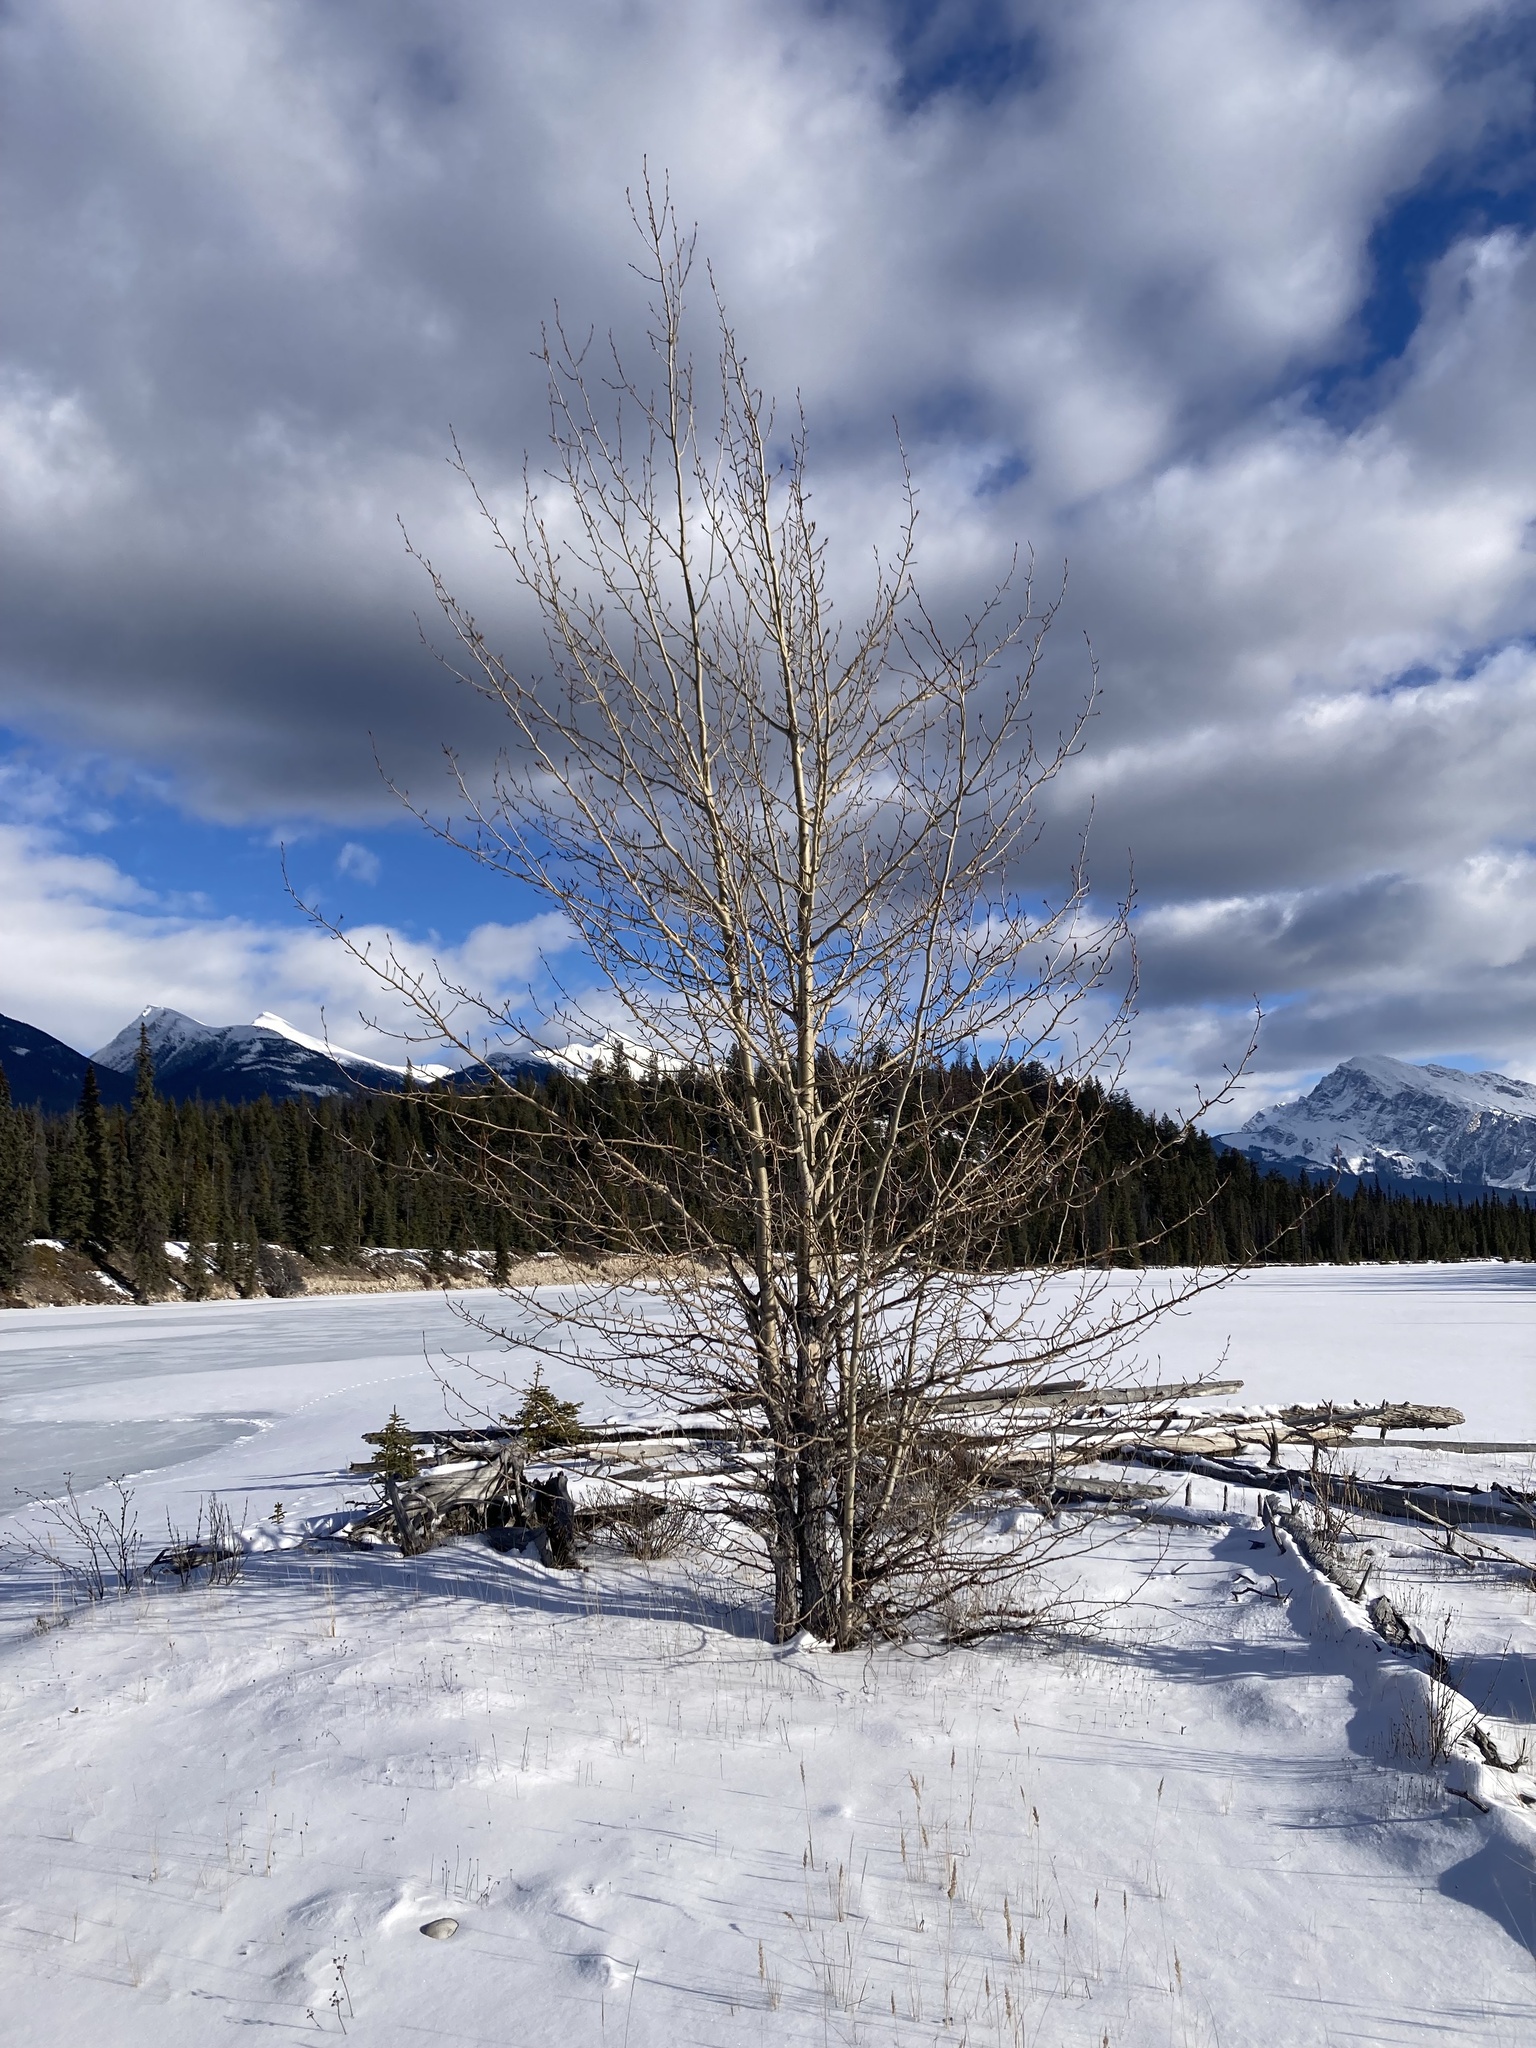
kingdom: Plantae
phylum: Tracheophyta
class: Magnoliopsida
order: Malpighiales
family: Salicaceae
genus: Populus
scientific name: Populus balsamifera
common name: Balsam poplar
